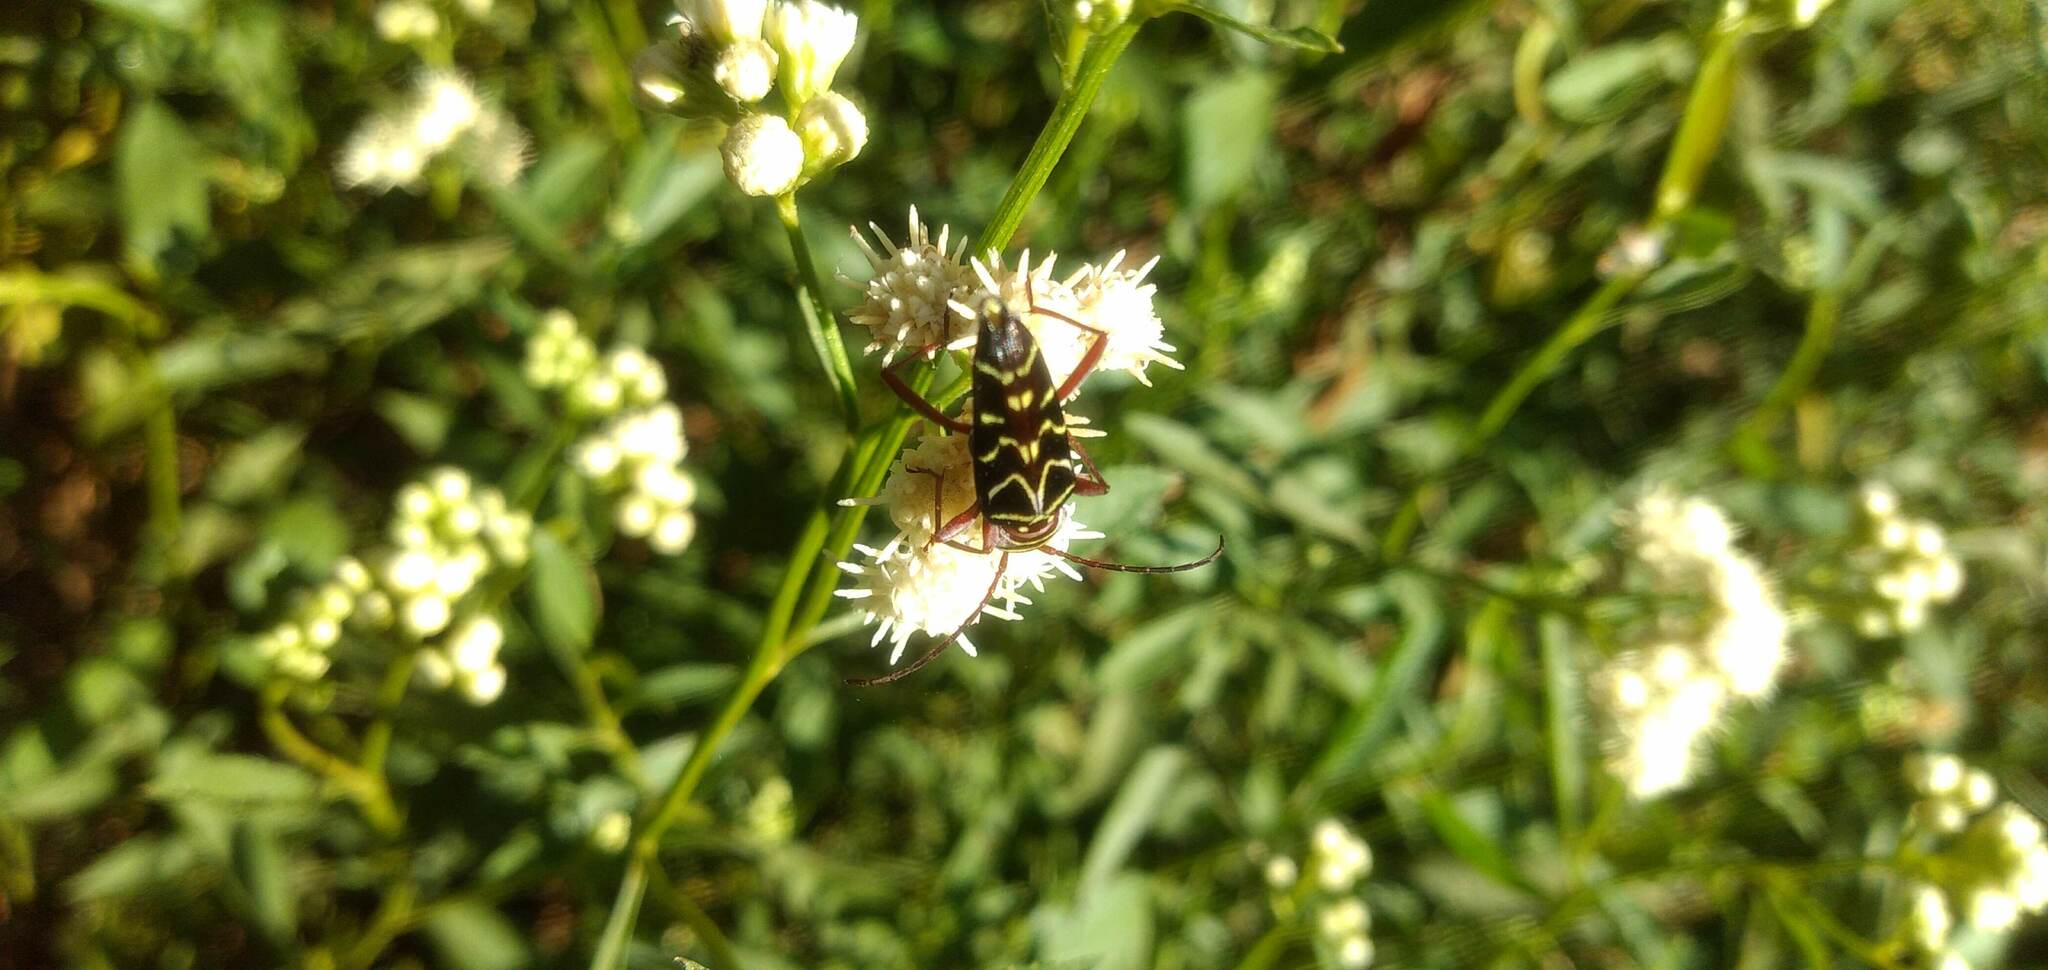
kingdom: Animalia
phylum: Arthropoda
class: Insecta
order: Coleoptera
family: Cerambycidae
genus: Megacyllene
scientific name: Megacyllene acuta
